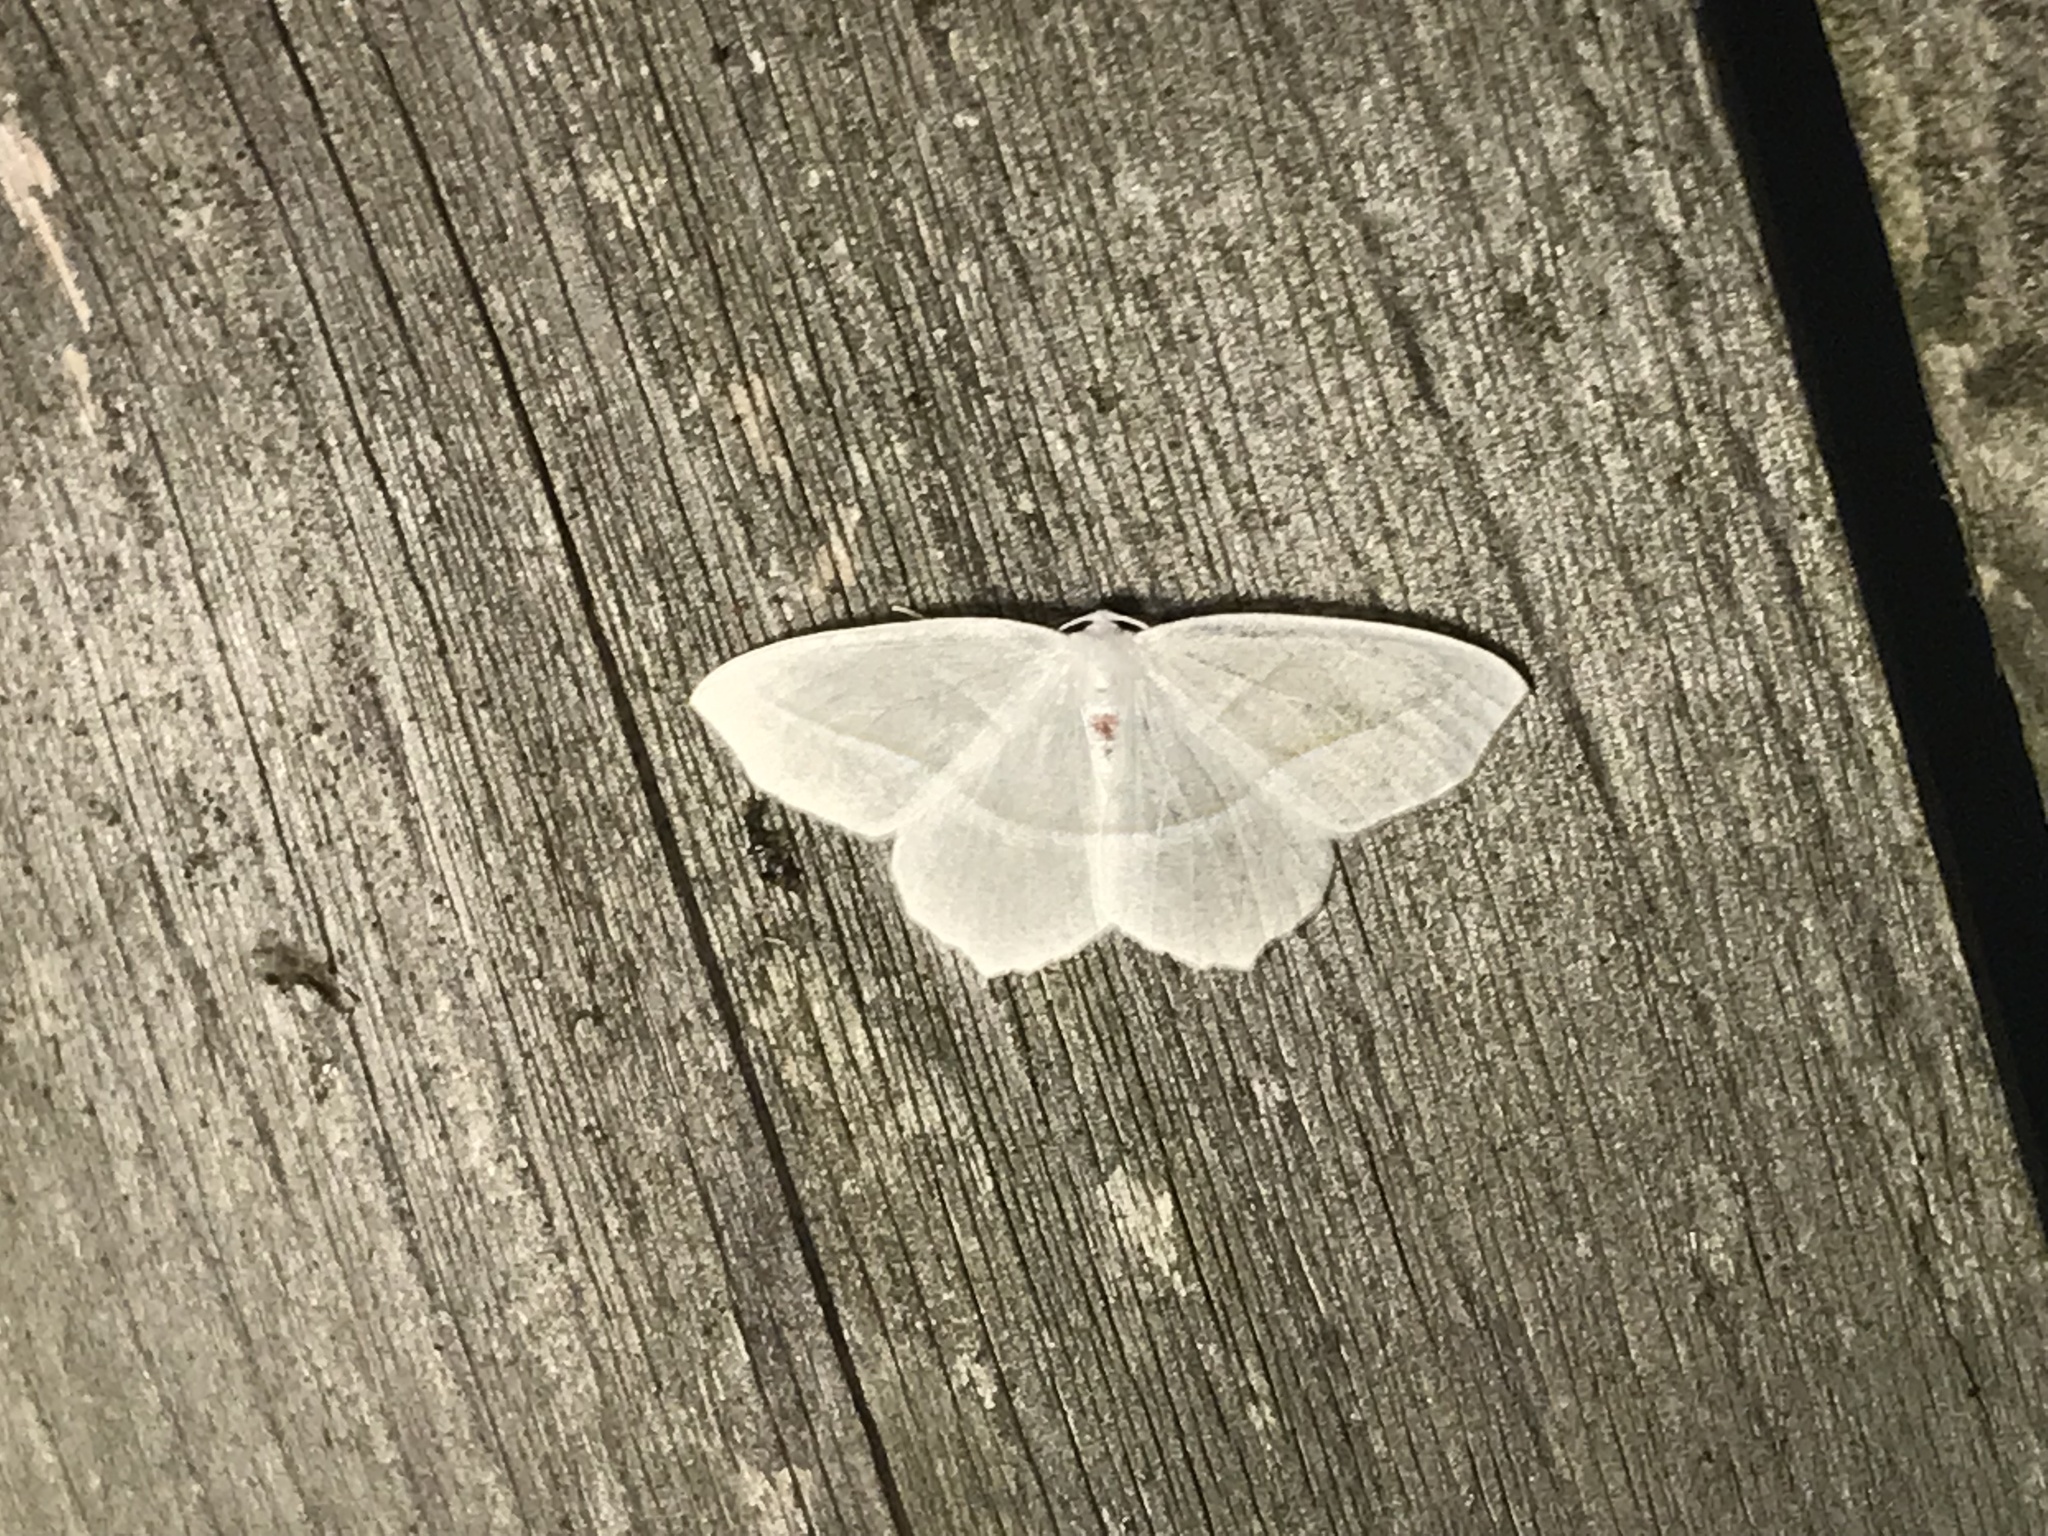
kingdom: Animalia
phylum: Arthropoda
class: Insecta
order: Lepidoptera
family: Geometridae
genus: Campaea
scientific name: Campaea perlata
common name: Fringed looper
